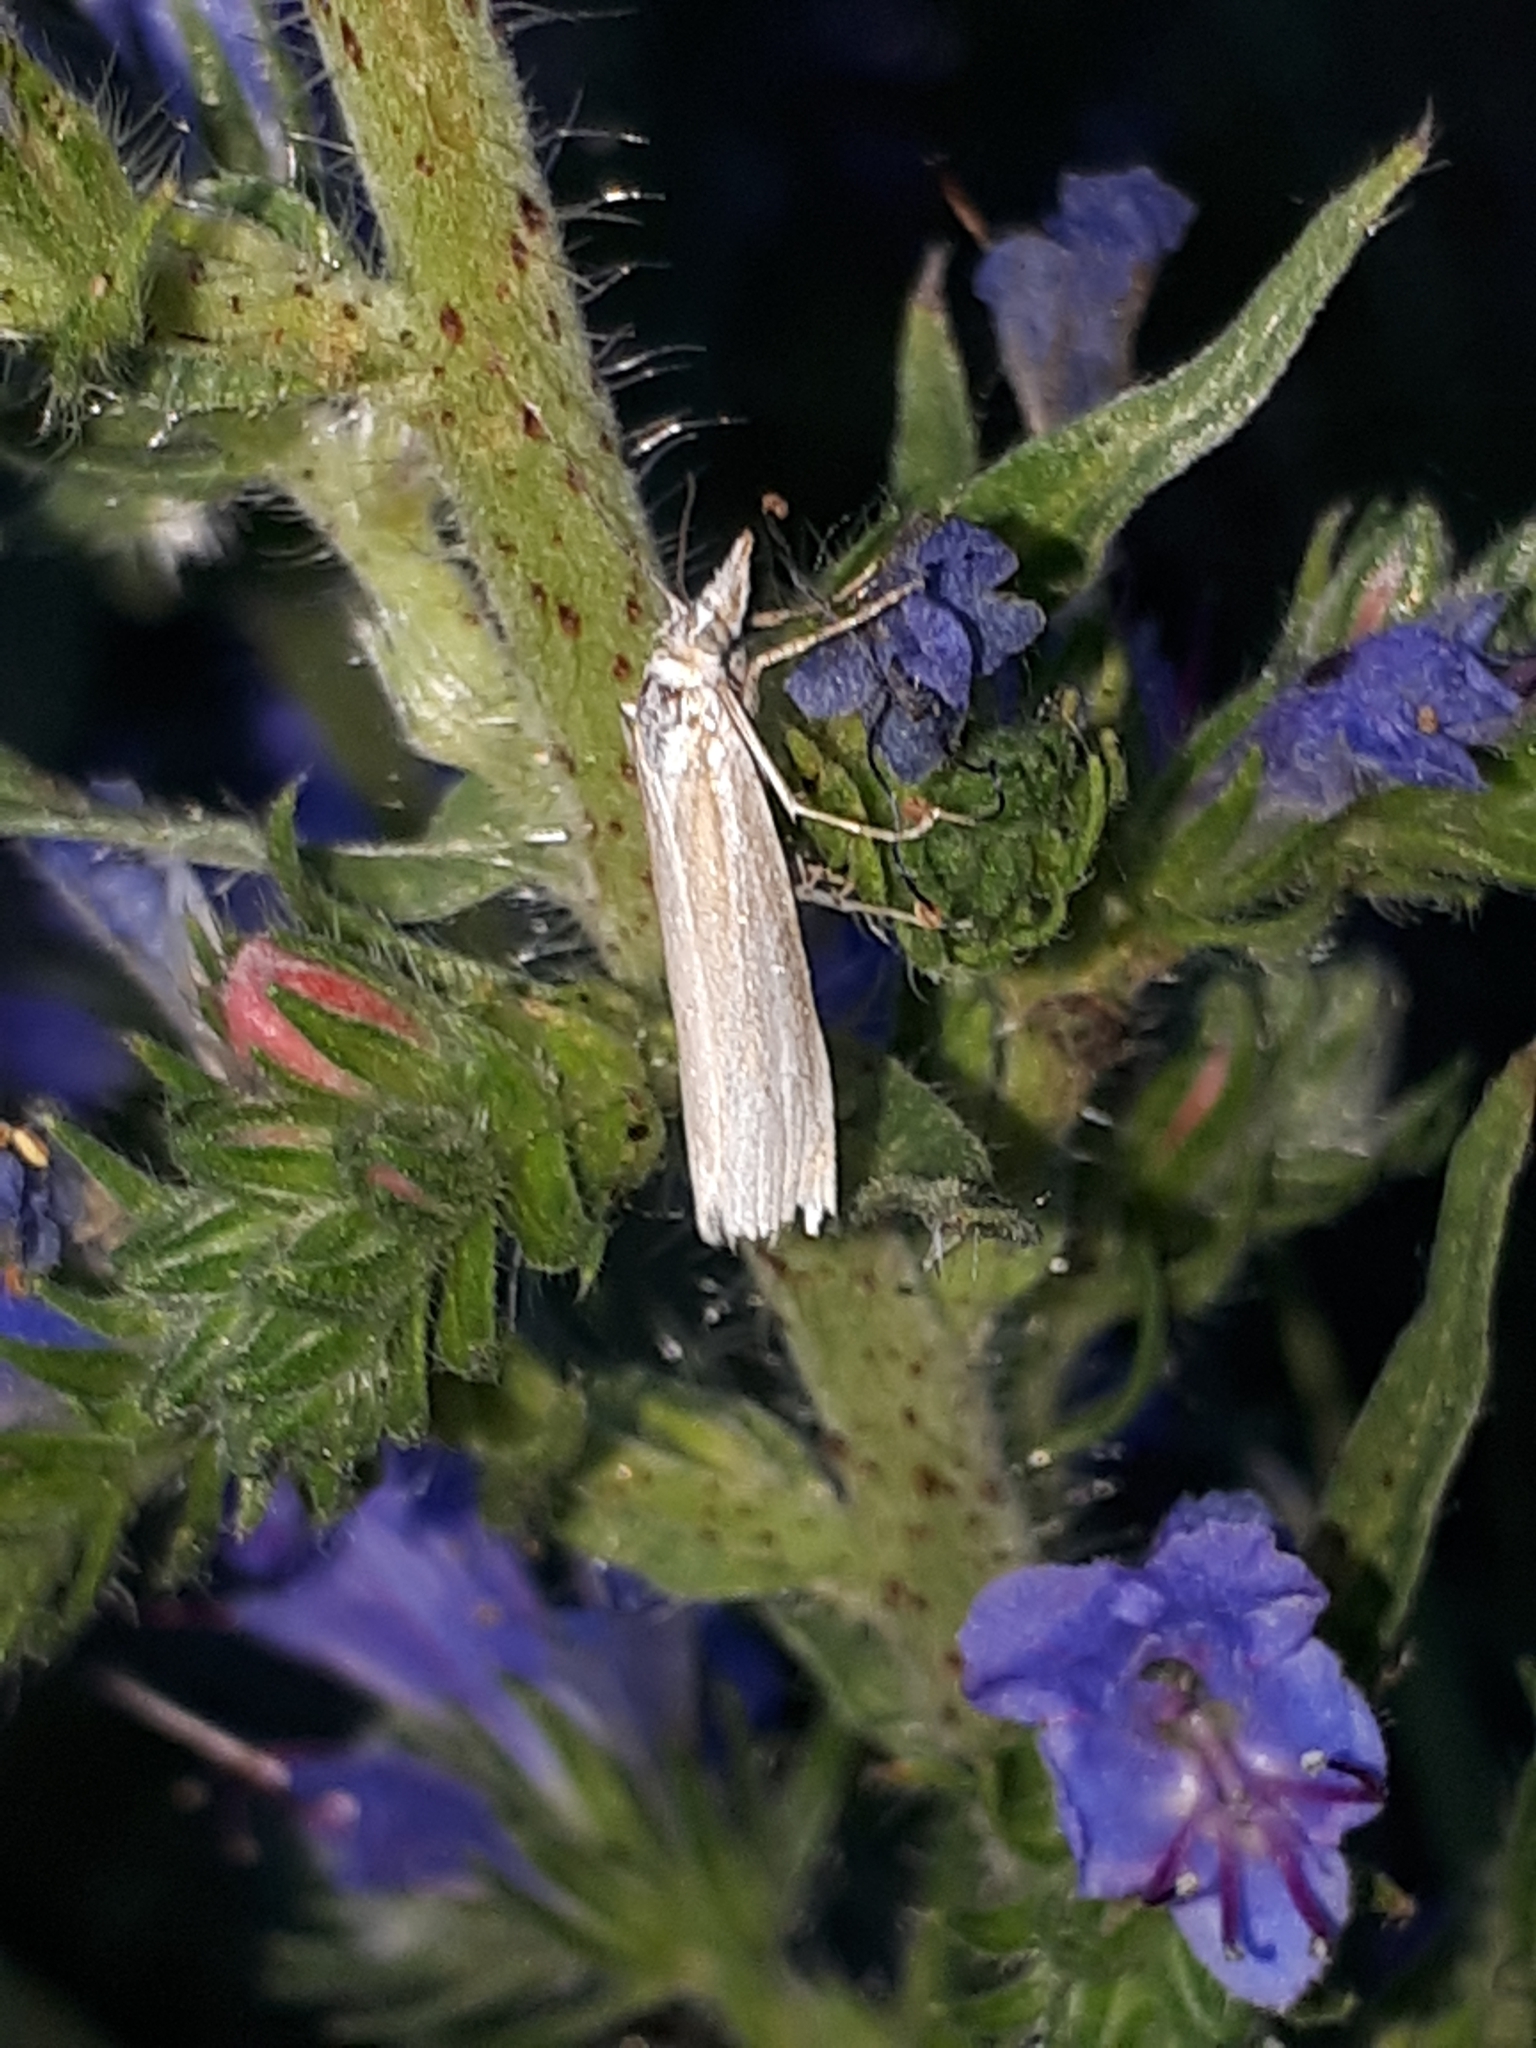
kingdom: Animalia
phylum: Arthropoda
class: Insecta
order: Lepidoptera
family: Crambidae
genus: Crambus
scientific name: Crambus perlellus
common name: Yellow satin veneer
